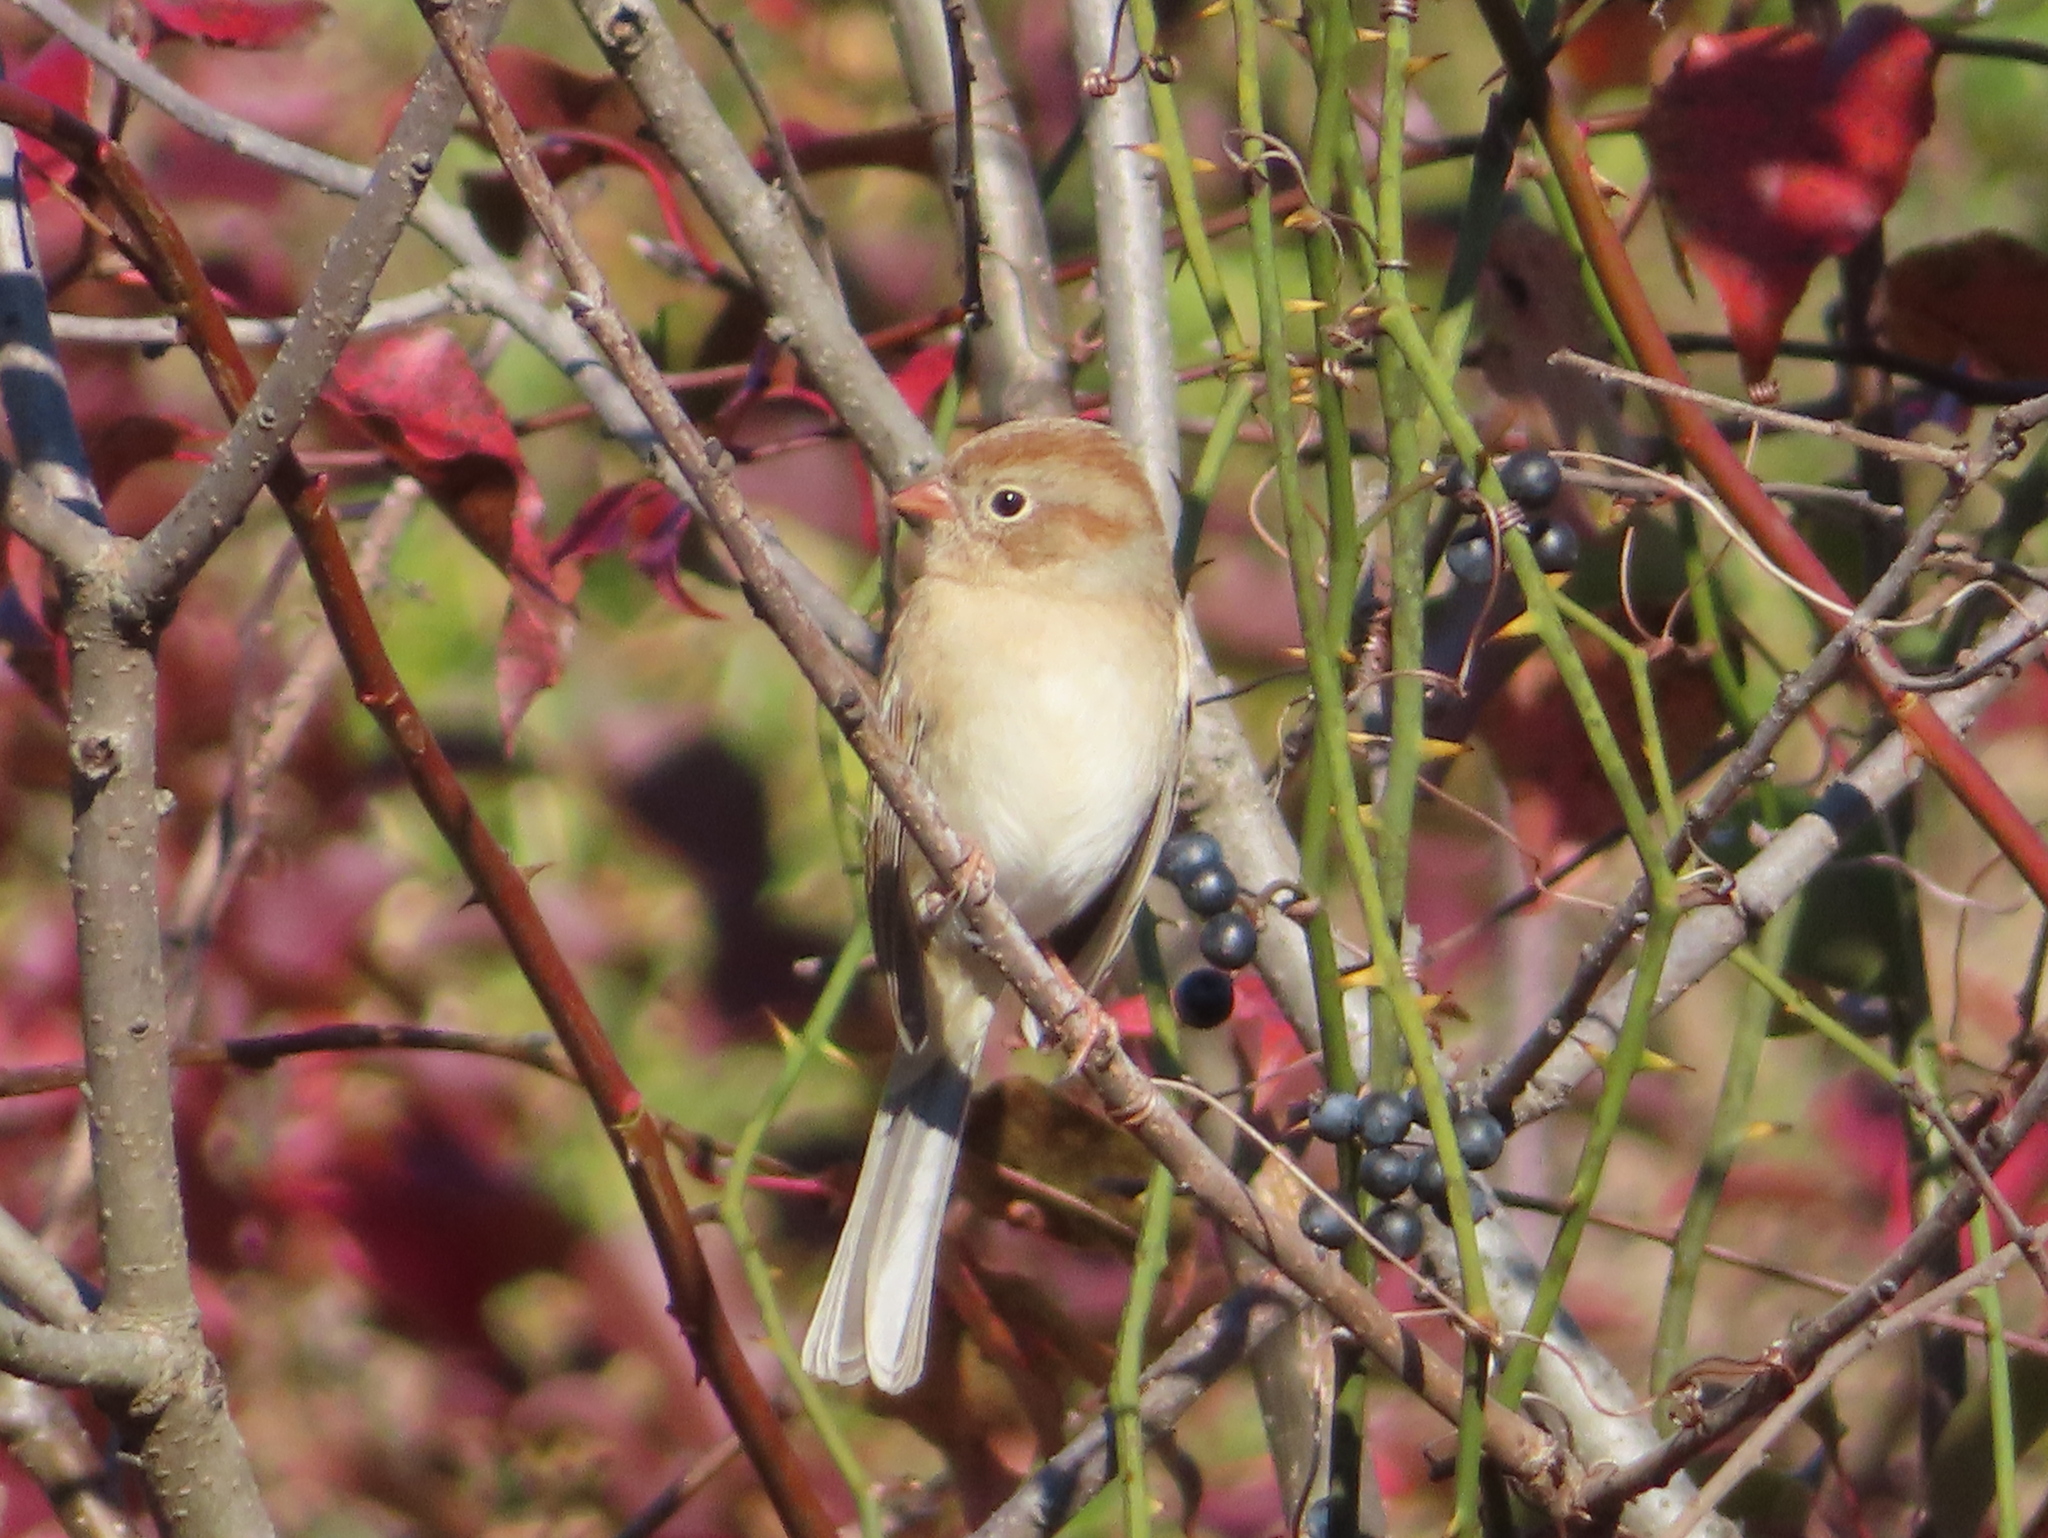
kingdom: Animalia
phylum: Chordata
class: Aves
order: Passeriformes
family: Passerellidae
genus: Spizella
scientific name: Spizella pusilla
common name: Field sparrow
